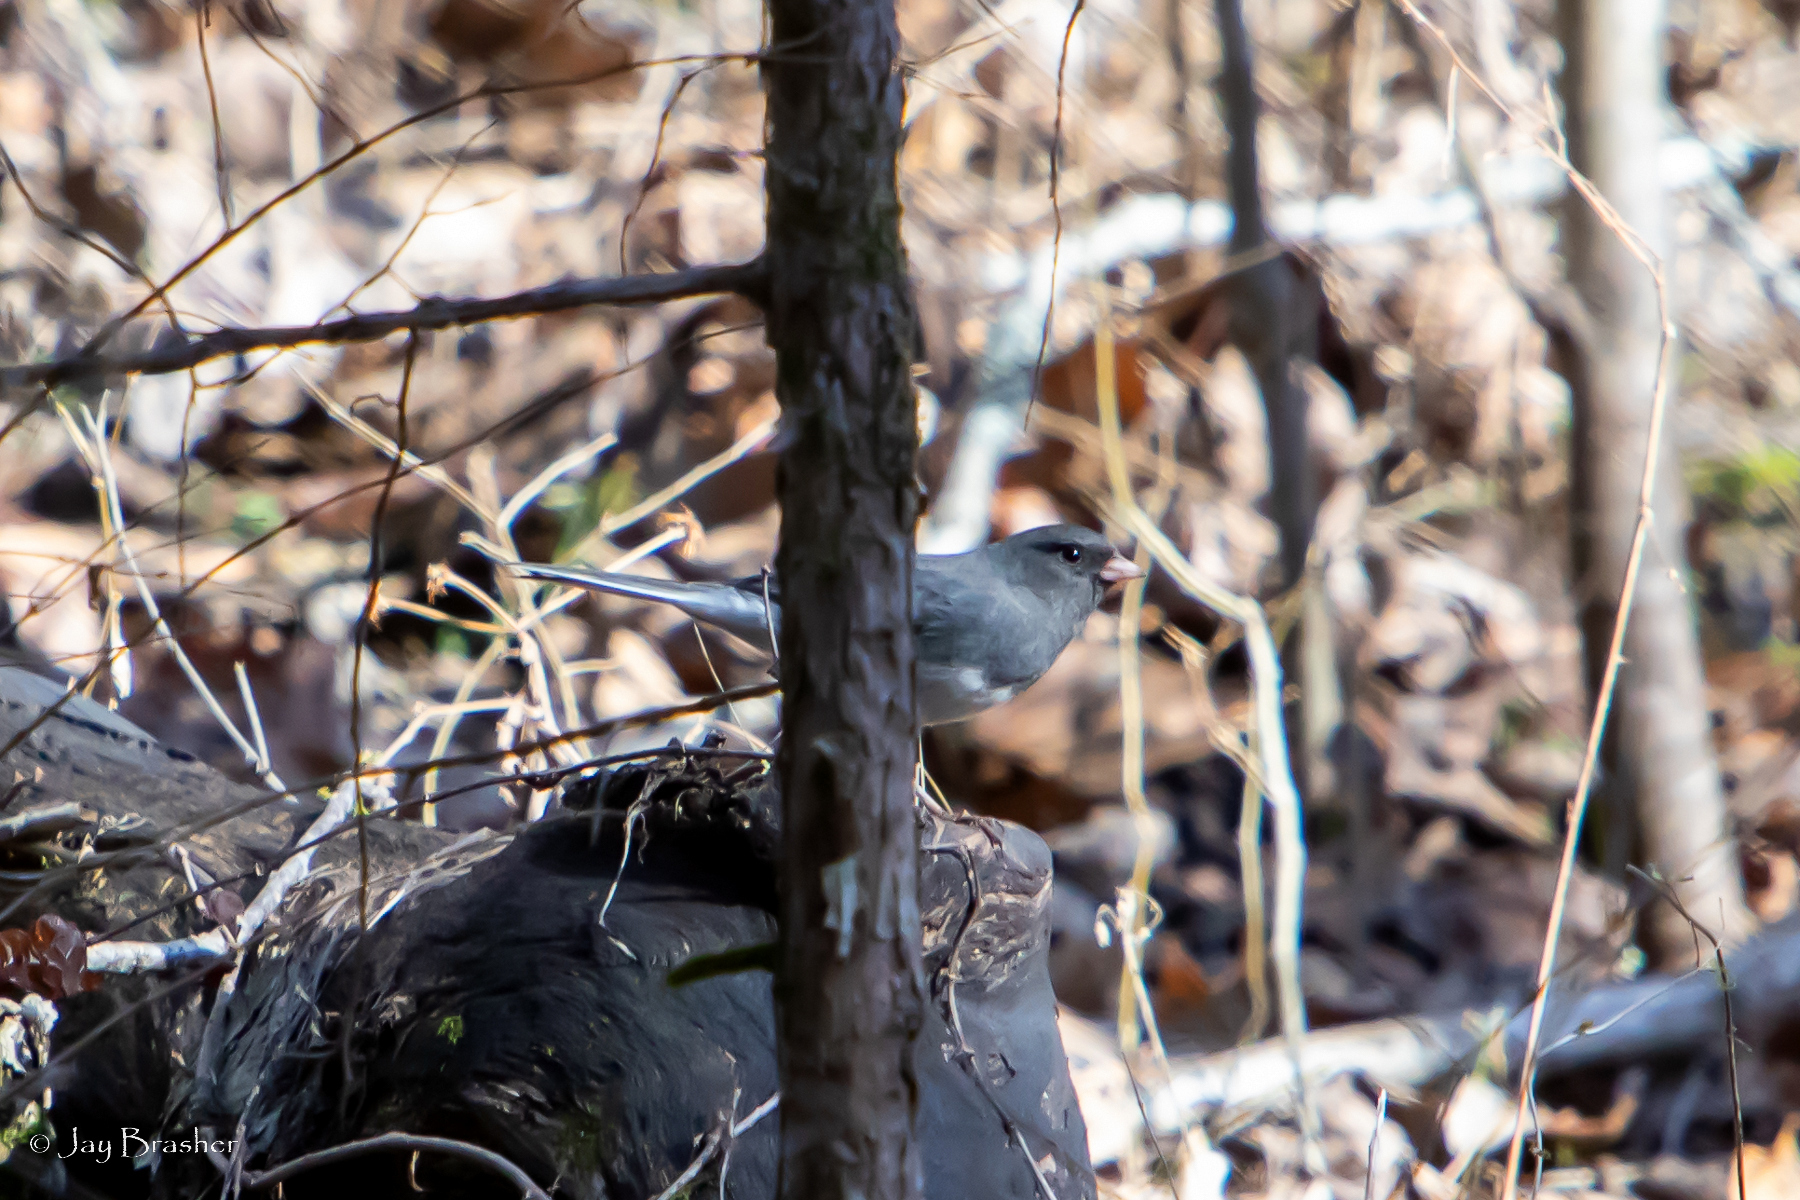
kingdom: Animalia
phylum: Chordata
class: Aves
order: Passeriformes
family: Passerellidae
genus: Junco
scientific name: Junco hyemalis
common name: Dark-eyed junco
